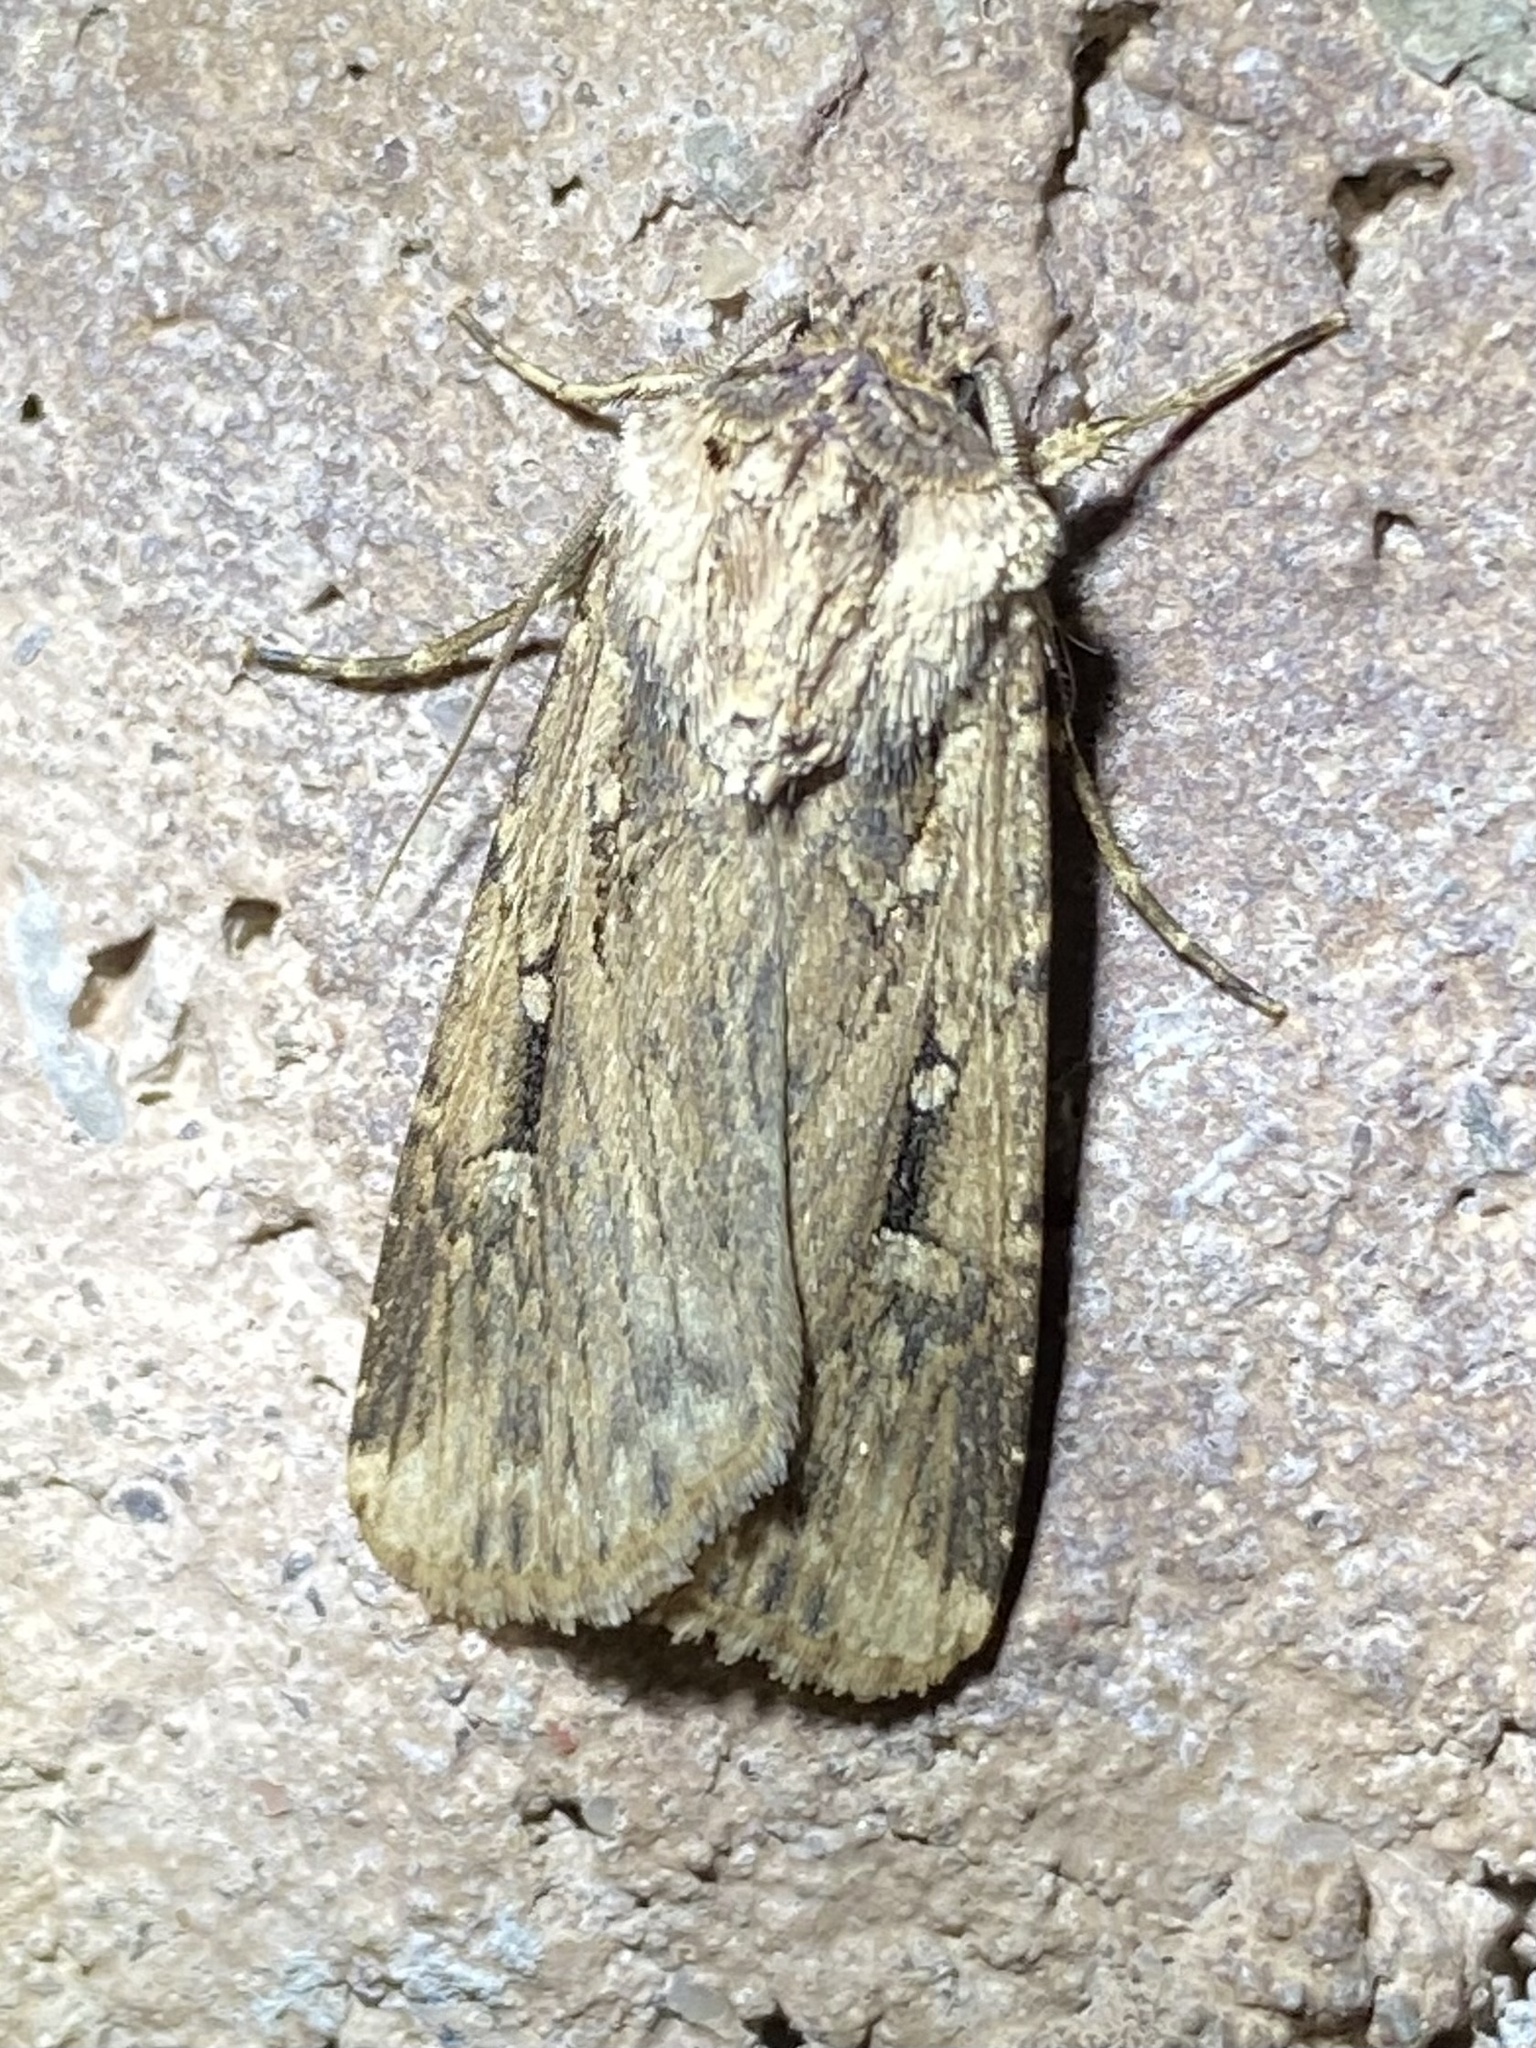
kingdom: Animalia
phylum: Arthropoda
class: Insecta
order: Lepidoptera
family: Noctuidae
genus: Feltia
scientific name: Feltia subterranea
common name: Granulate cutworm
